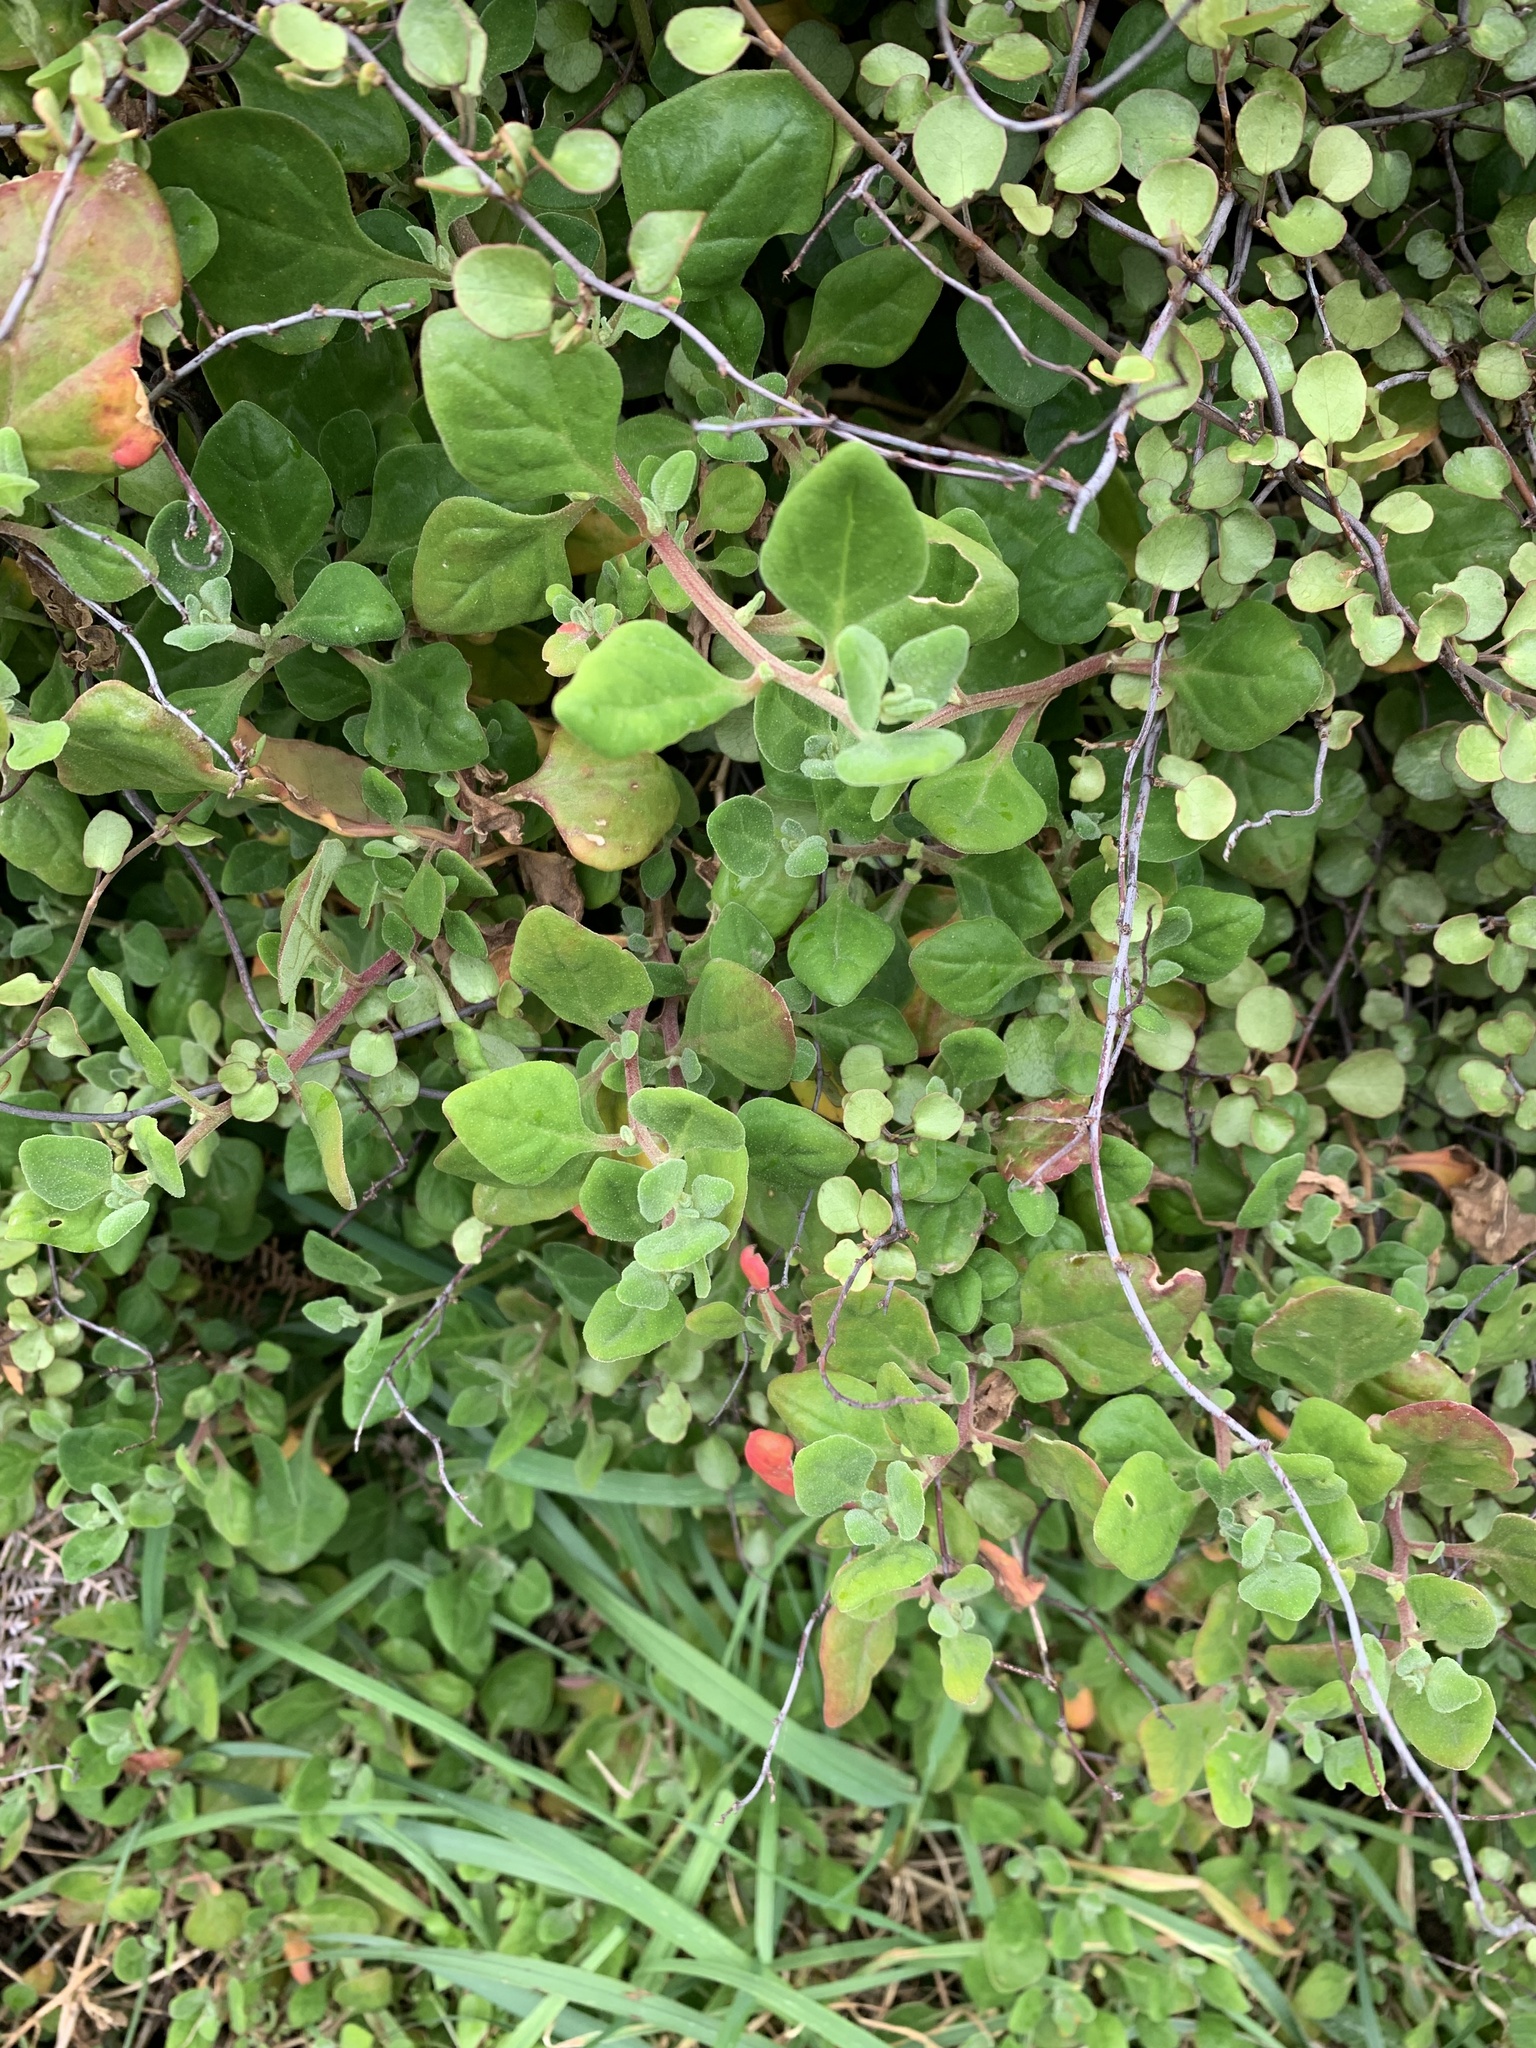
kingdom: Plantae
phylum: Tracheophyta
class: Magnoliopsida
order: Caryophyllales
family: Aizoaceae
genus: Tetragonia
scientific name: Tetragonia implexicoma
